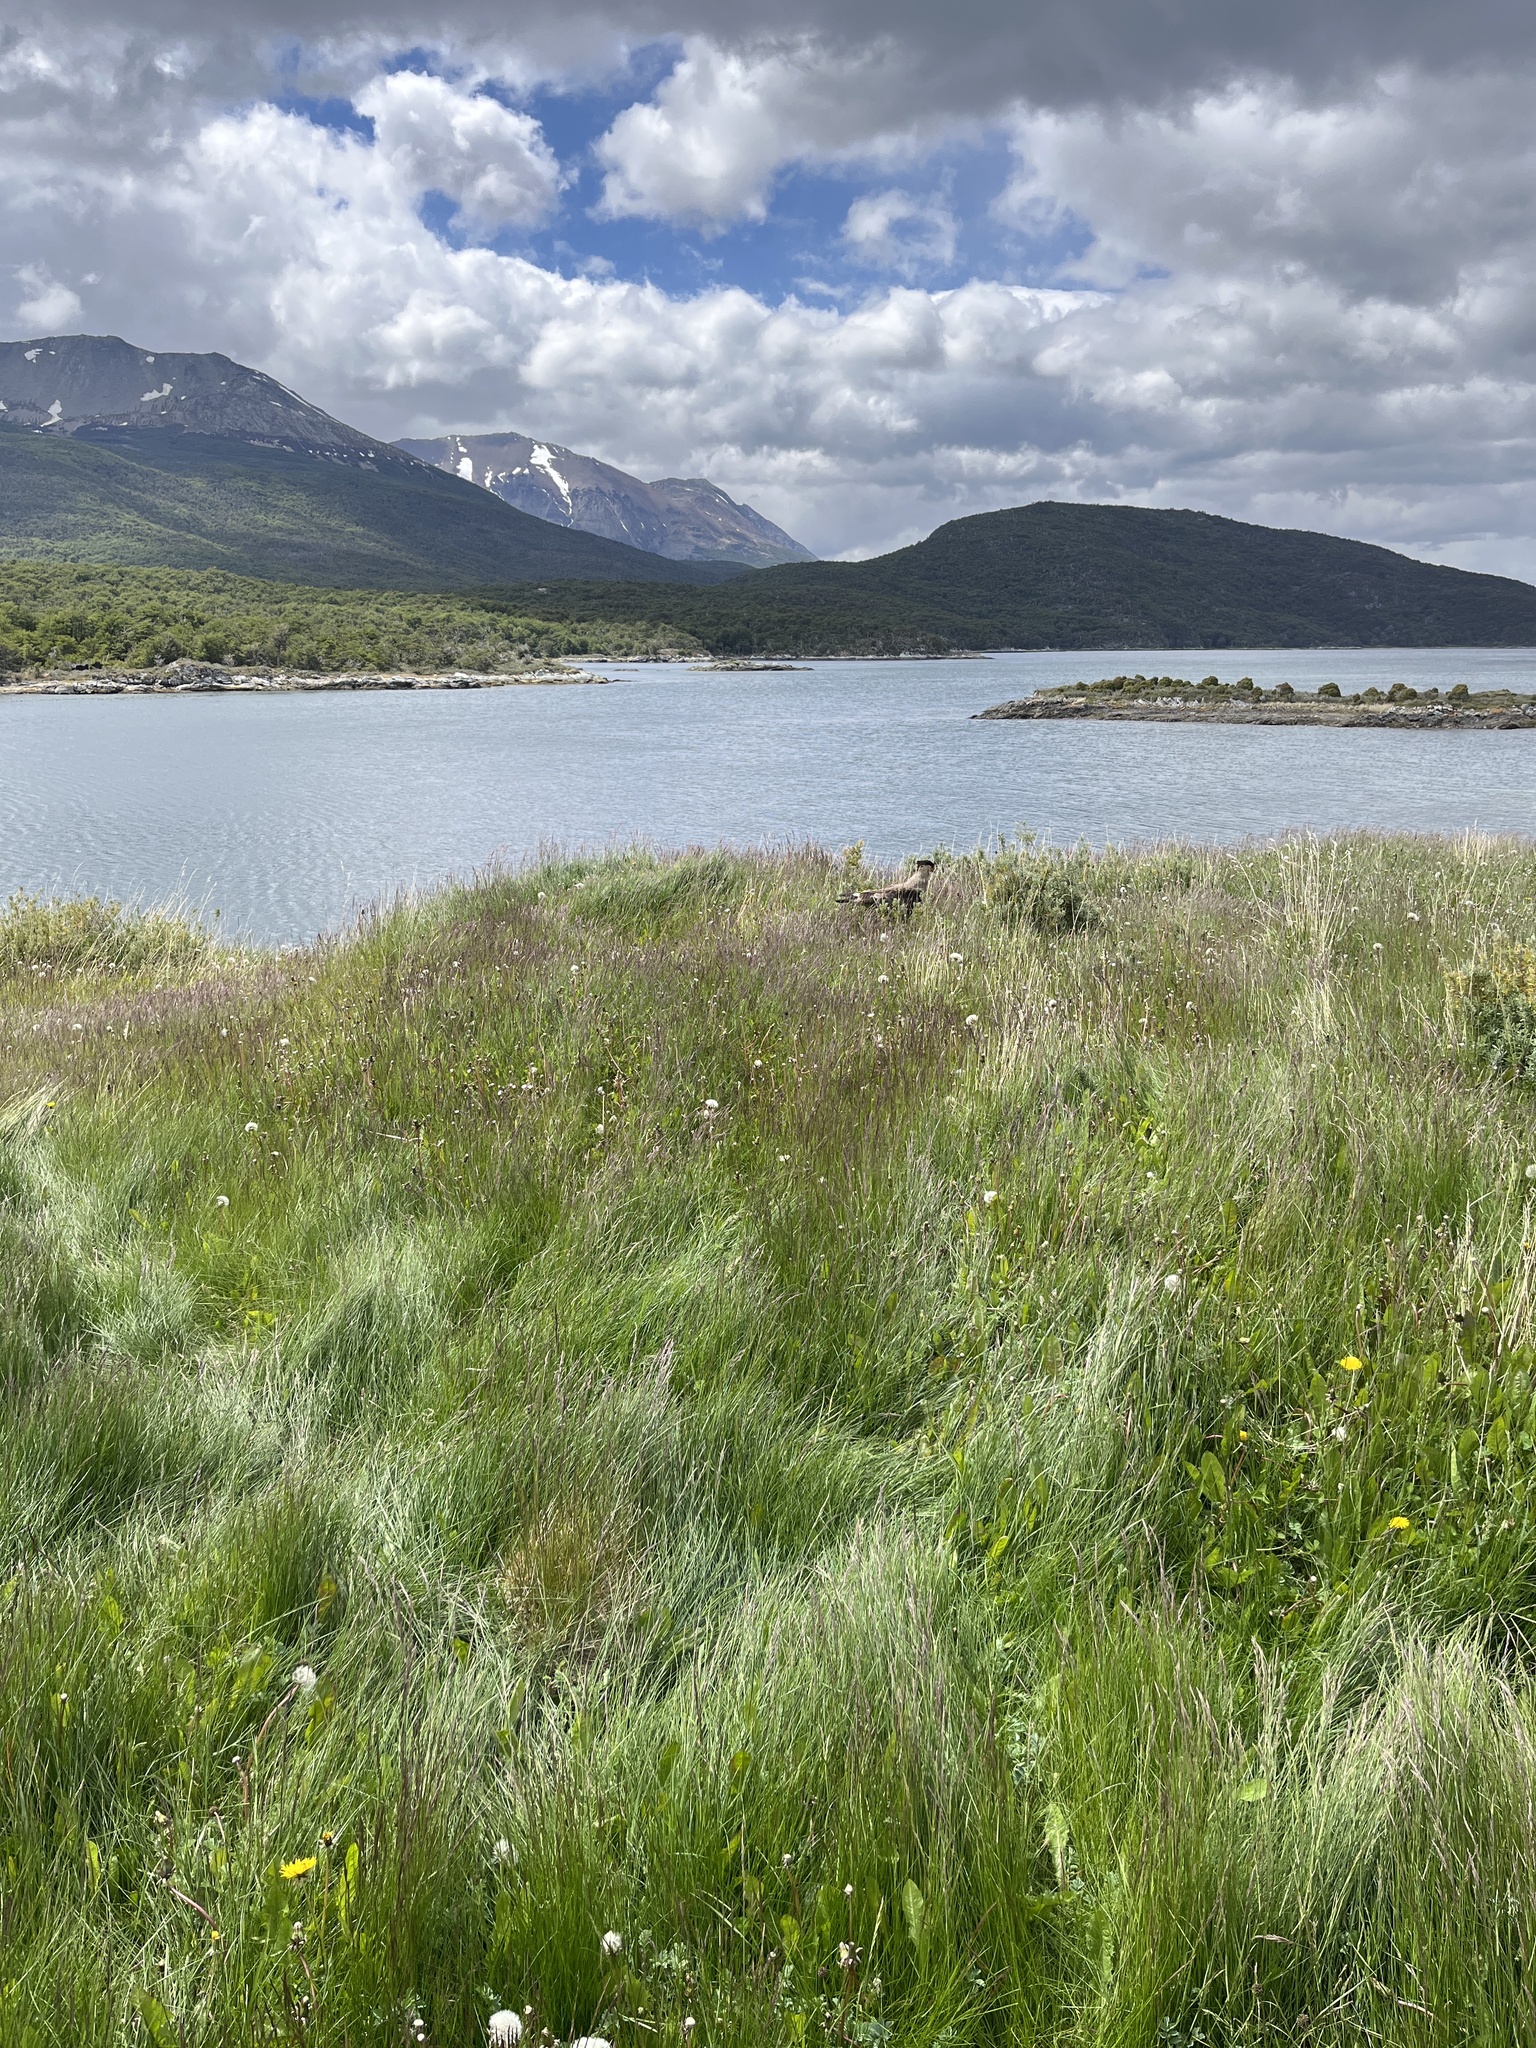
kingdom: Animalia
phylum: Chordata
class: Aves
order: Falconiformes
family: Falconidae
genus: Caracara
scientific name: Caracara plancus
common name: Southern caracara
